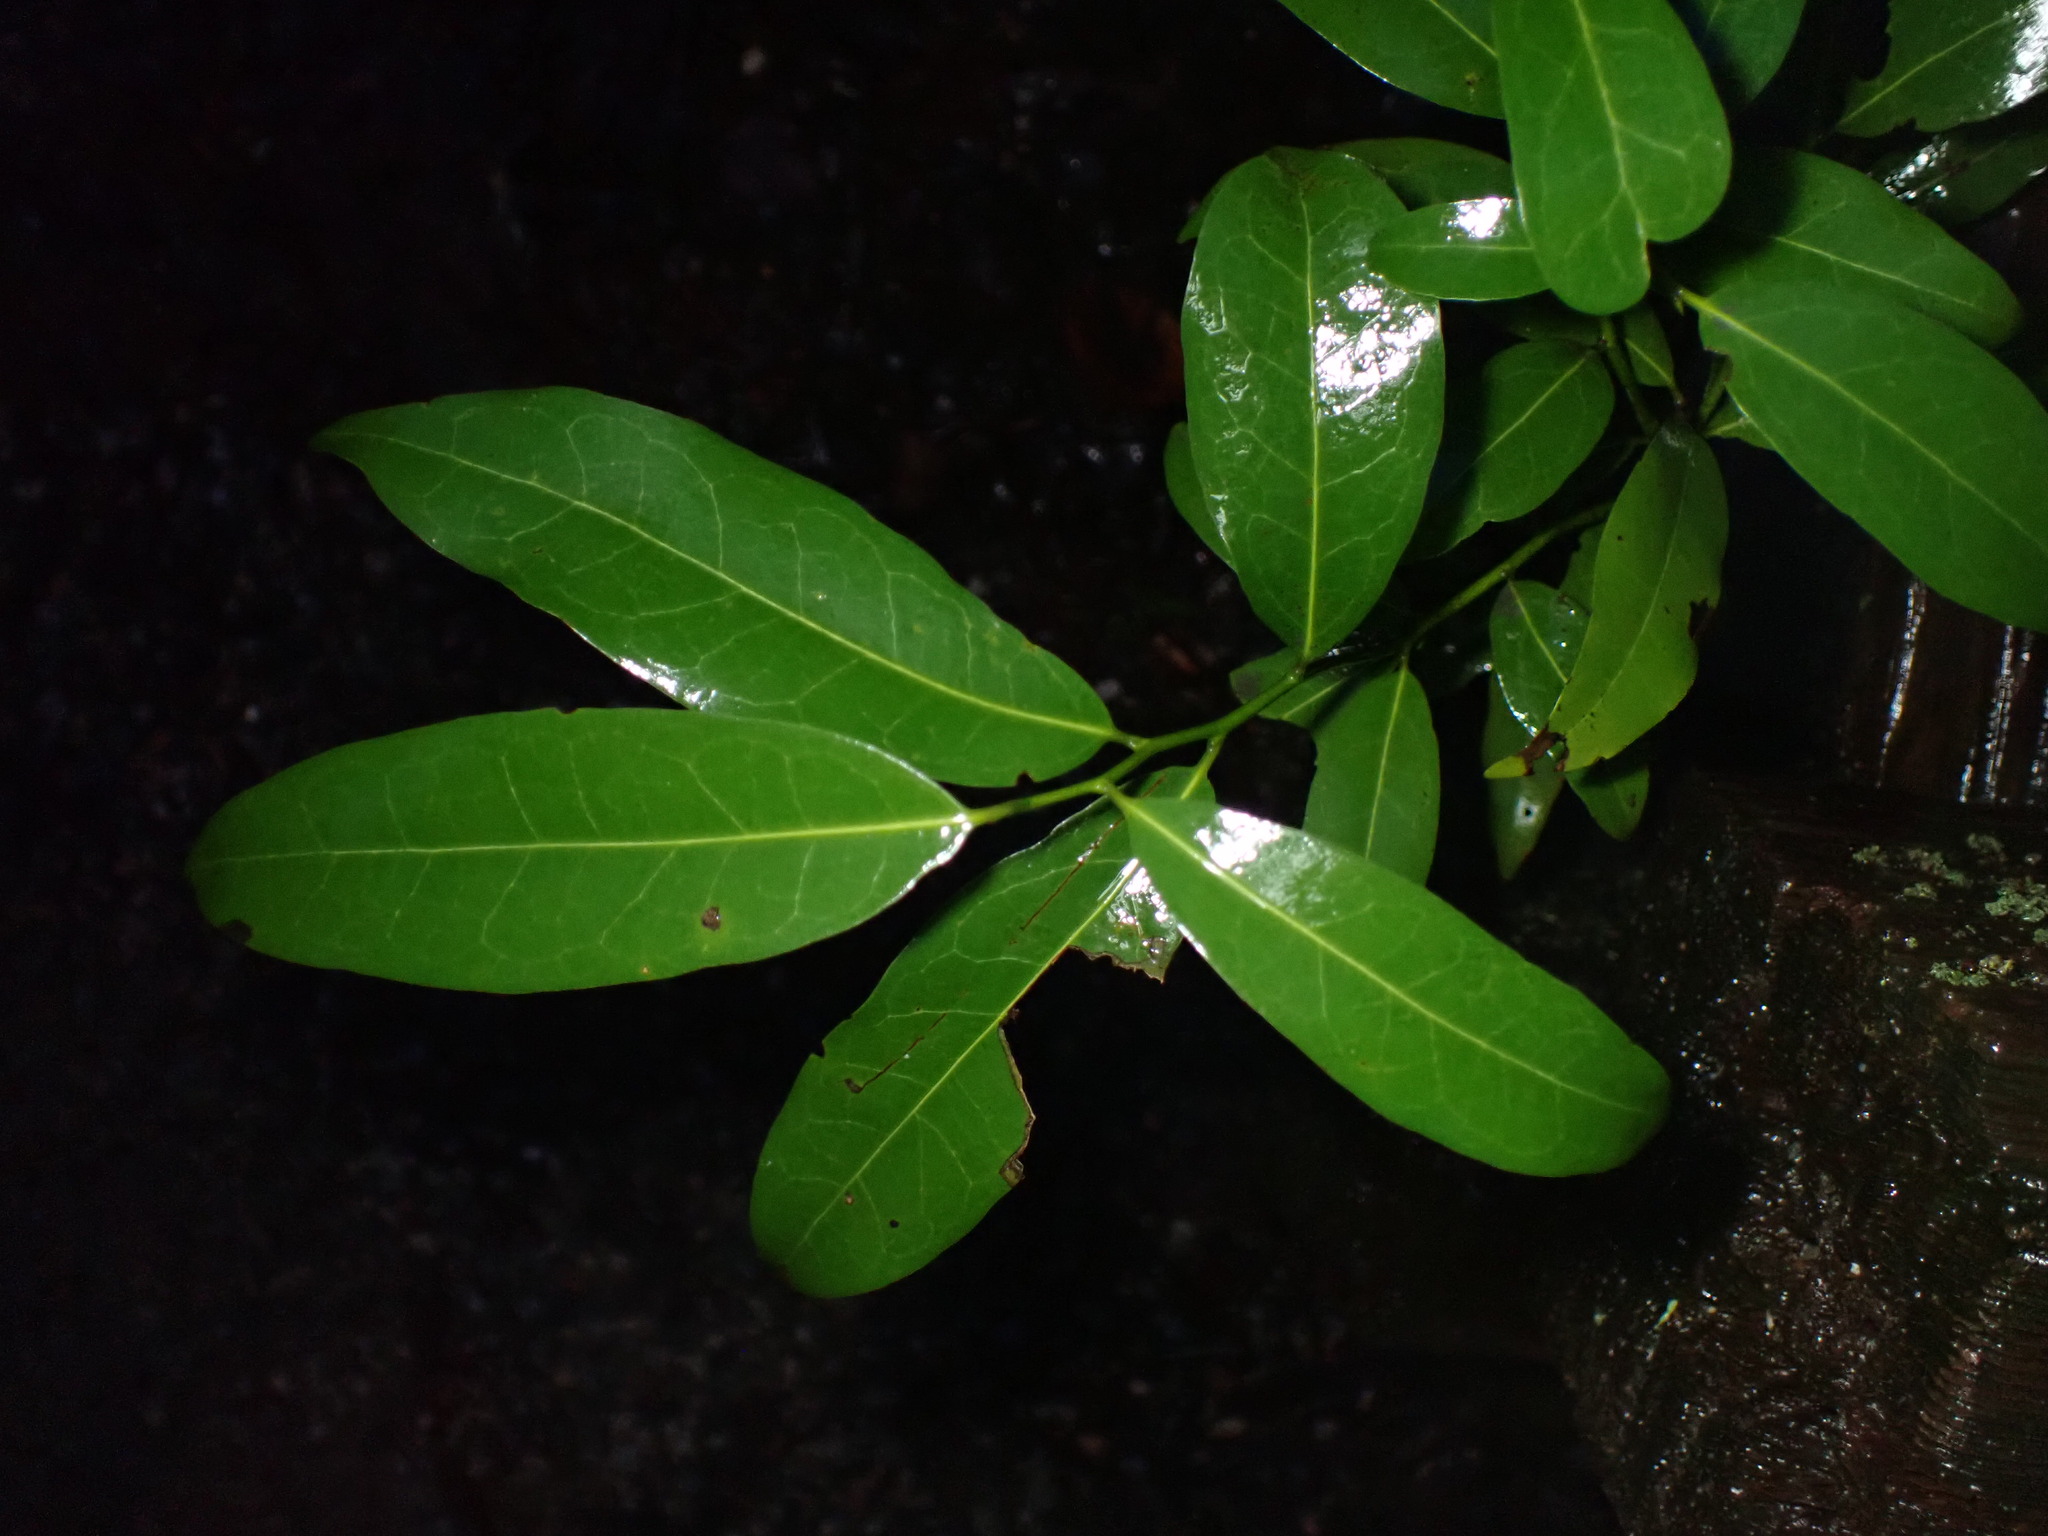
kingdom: Plantae
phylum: Tracheophyta
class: Magnoliopsida
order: Rosales
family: Rosaceae
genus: Prunus
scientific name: Prunus laurocerasus
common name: Cherry laurel
